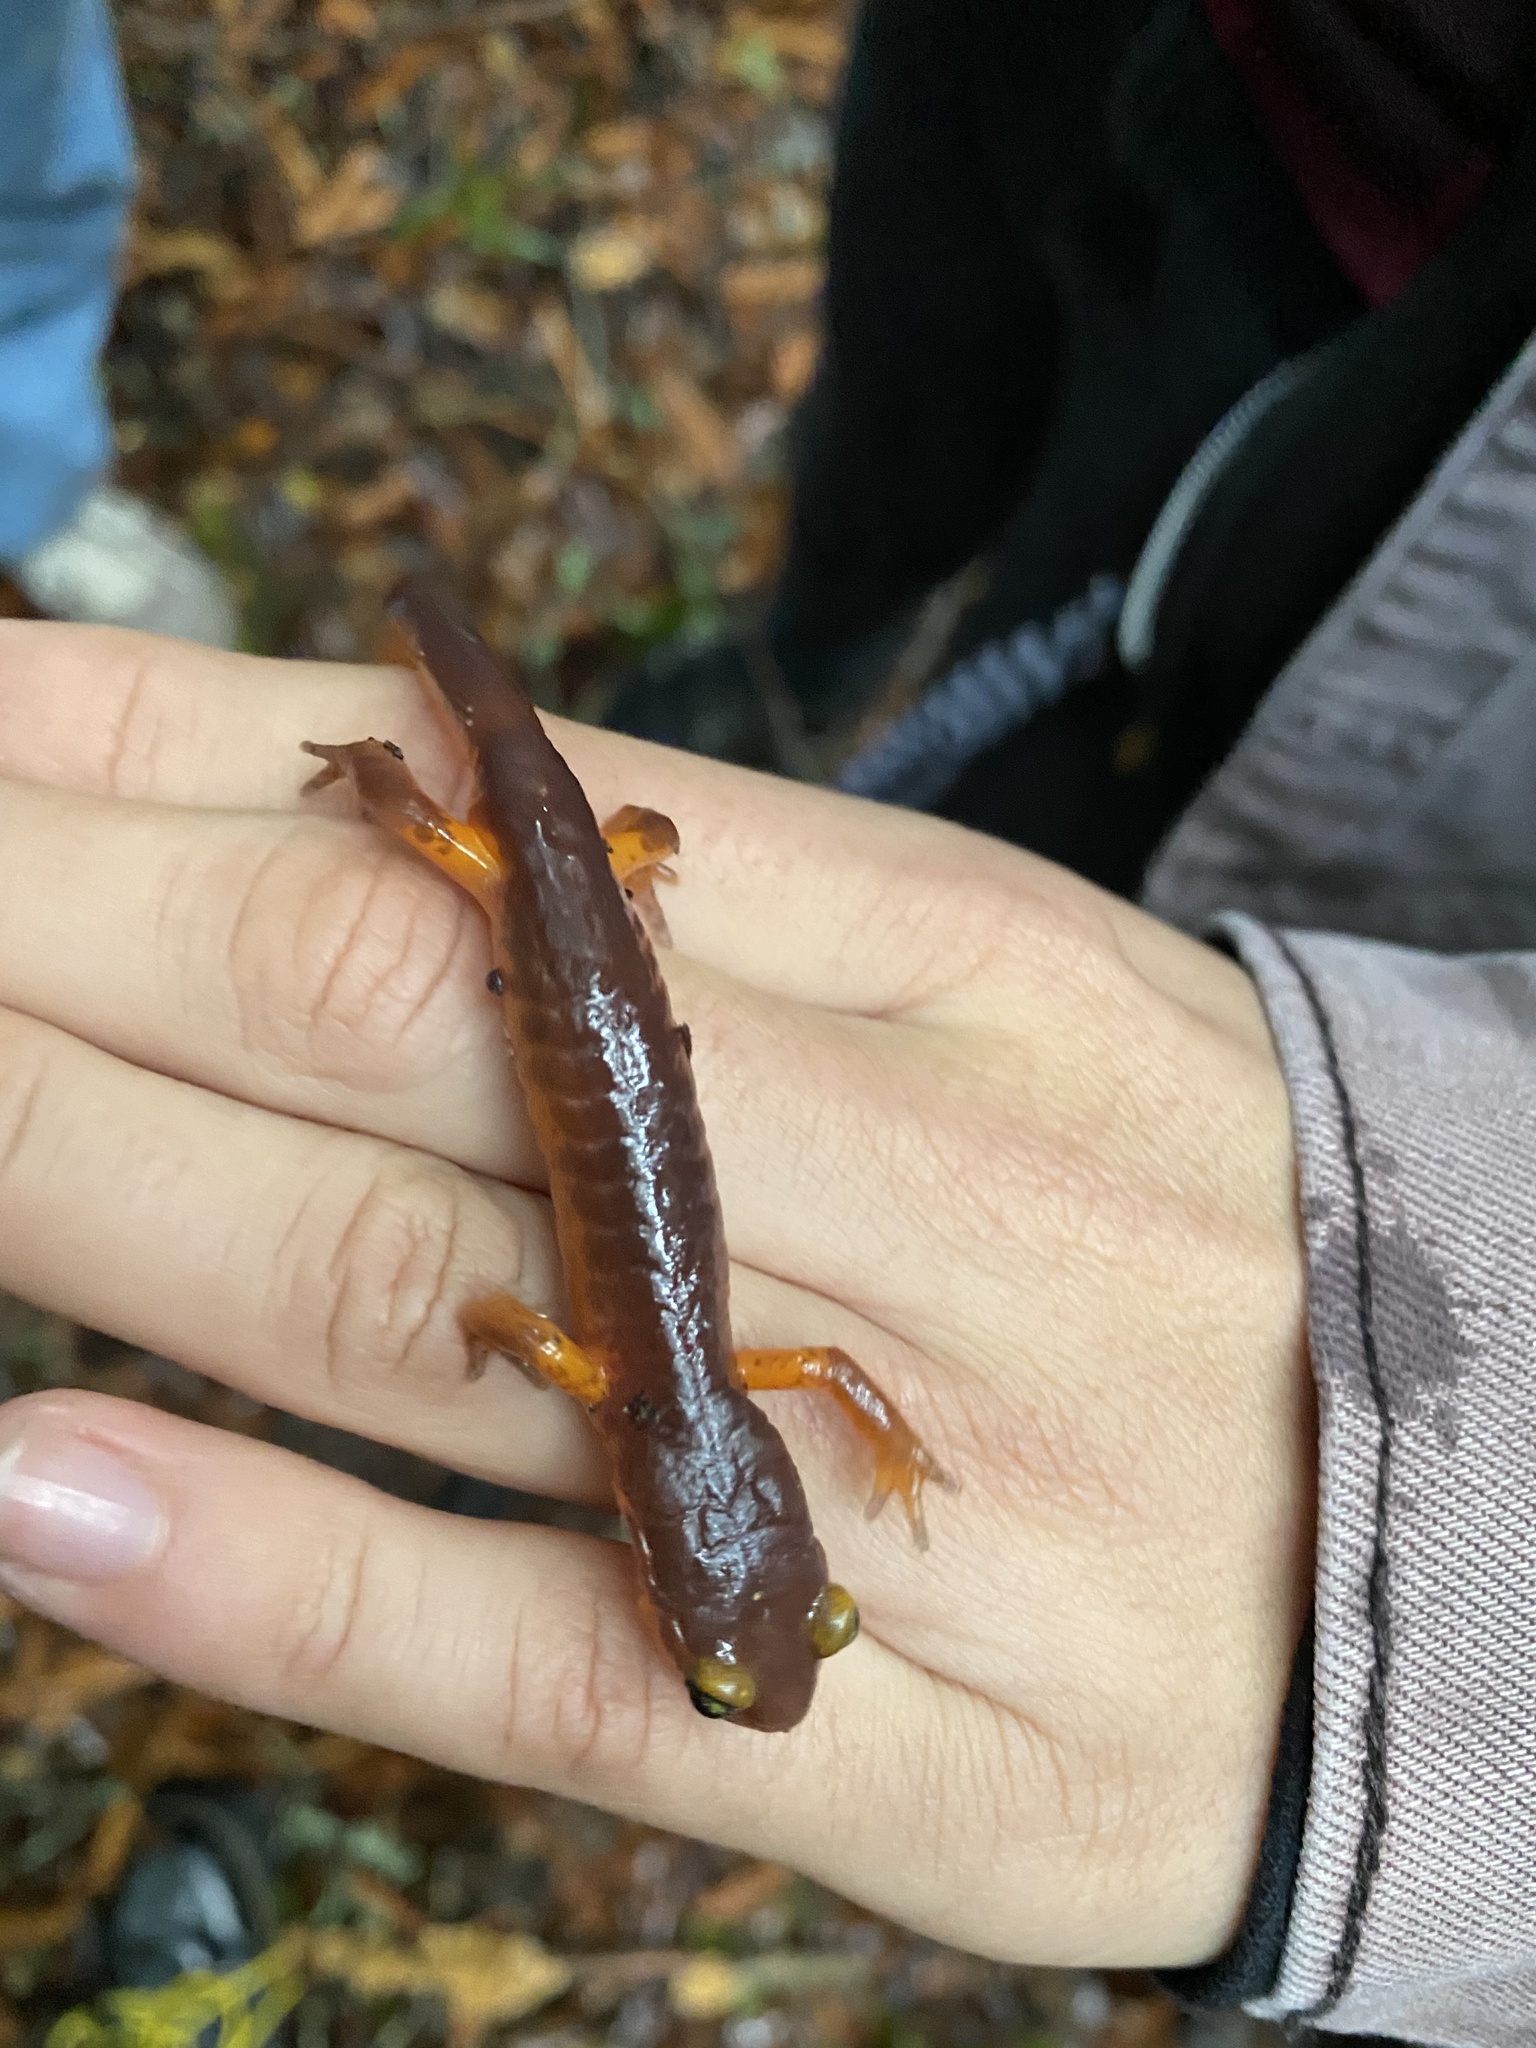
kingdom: Animalia
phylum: Chordata
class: Amphibia
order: Caudata
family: Plethodontidae
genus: Ensatina
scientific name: Ensatina eschscholtzii
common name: Ensatina
